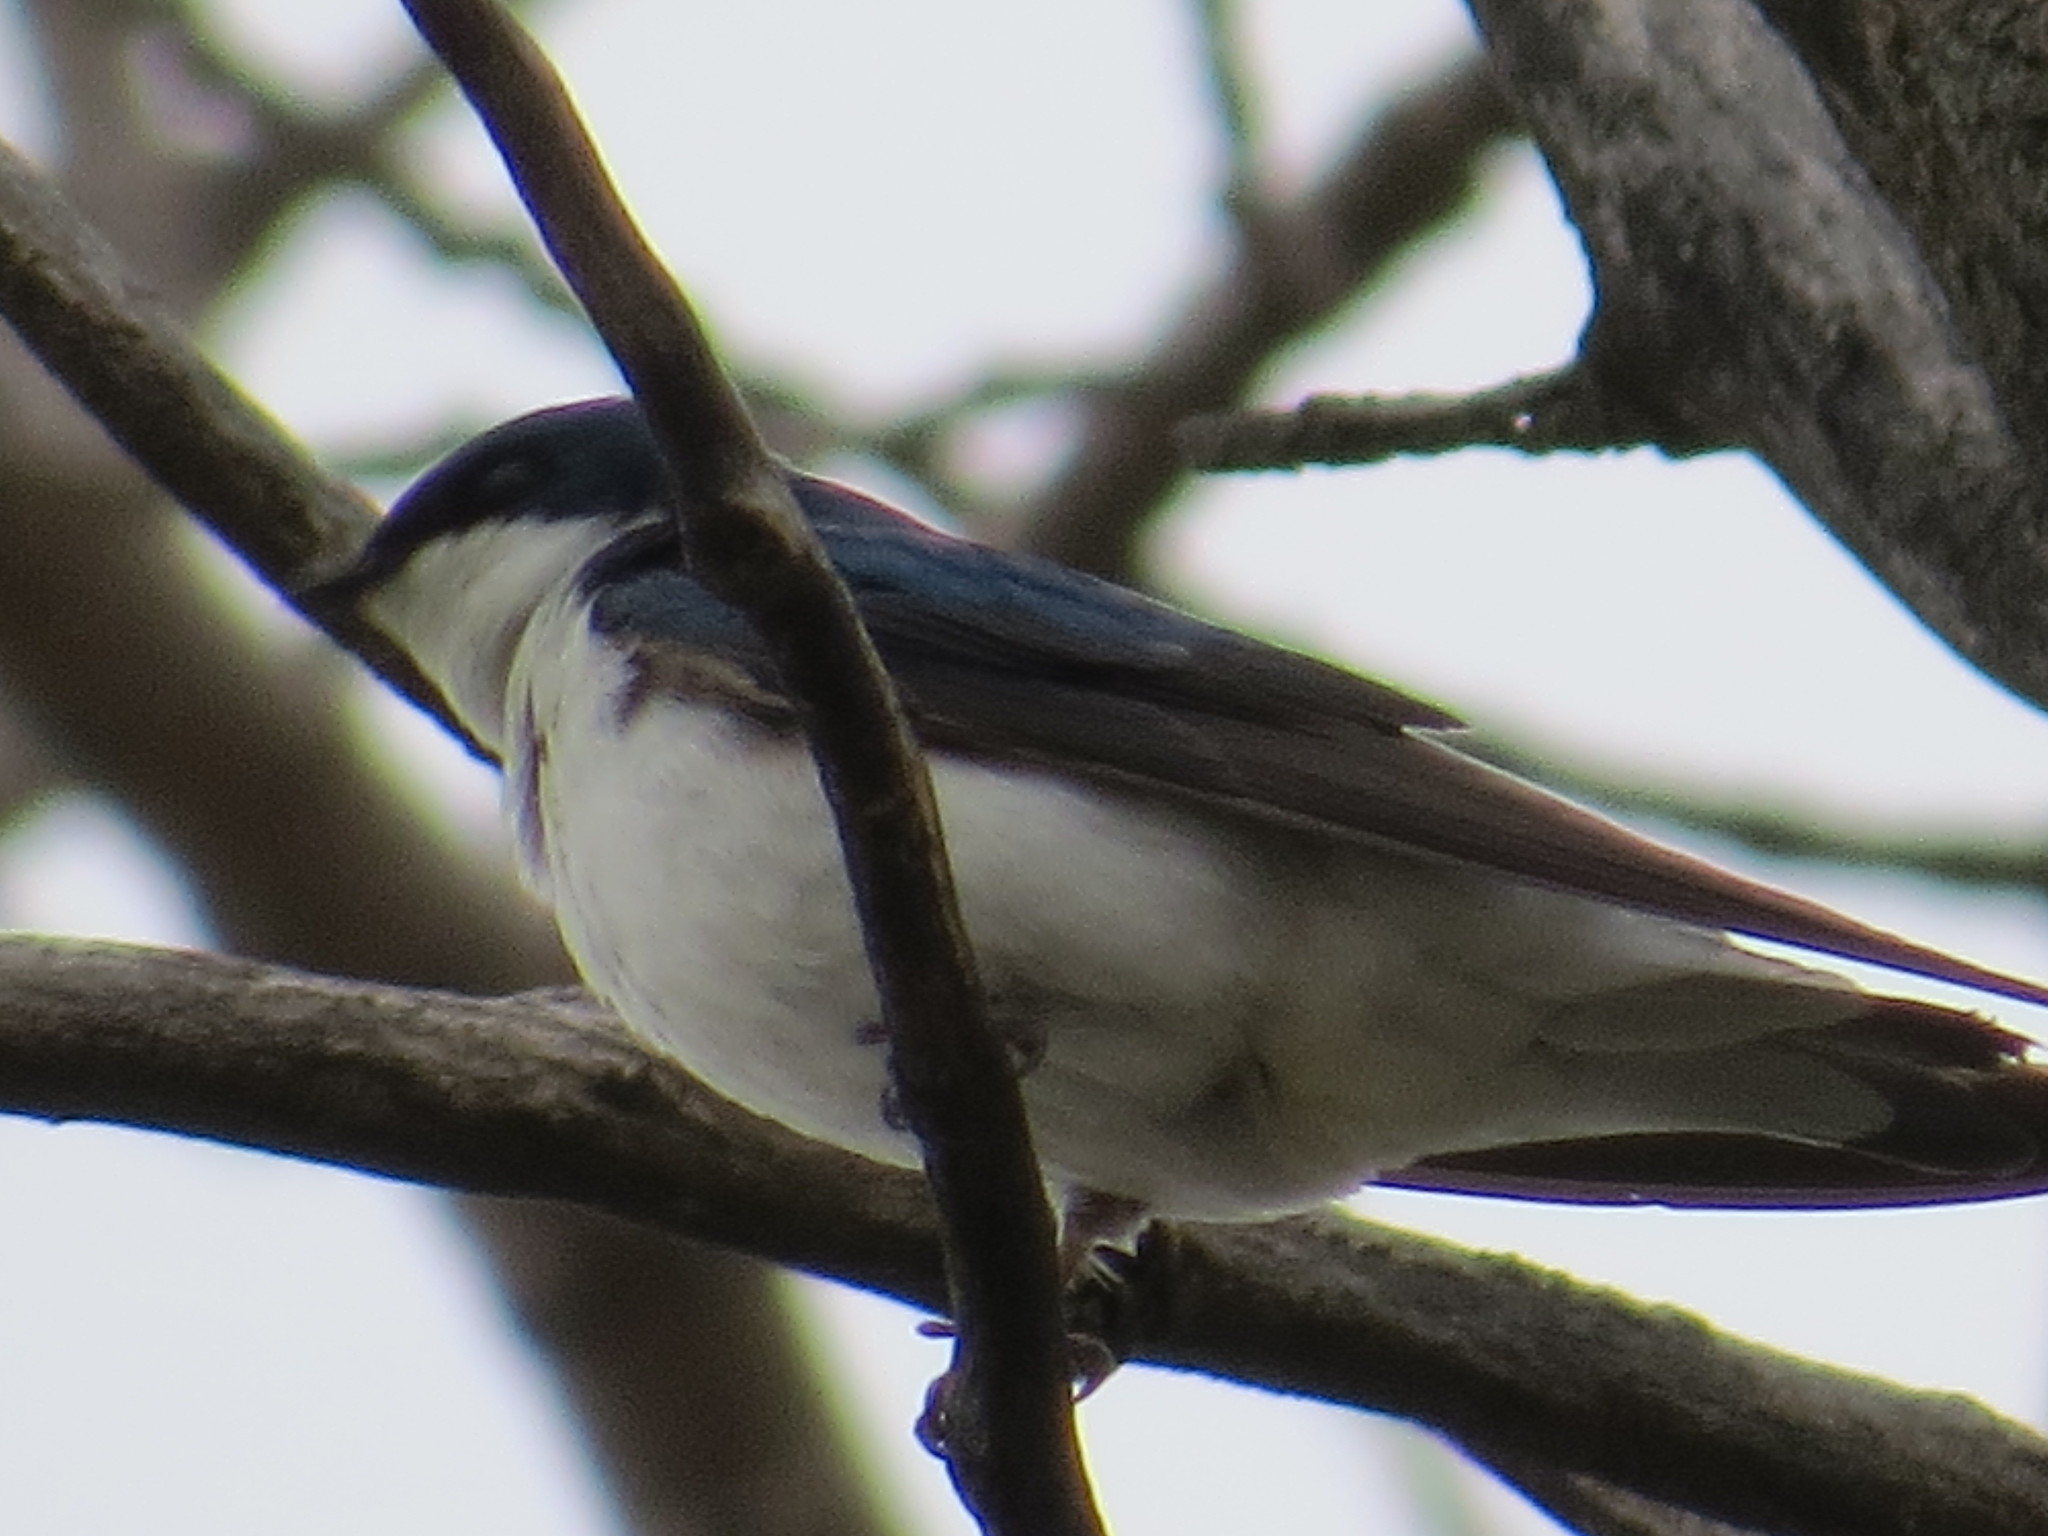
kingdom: Animalia
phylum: Chordata
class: Aves
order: Passeriformes
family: Hirundinidae
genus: Tachycineta
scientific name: Tachycineta bicolor
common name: Tree swallow
